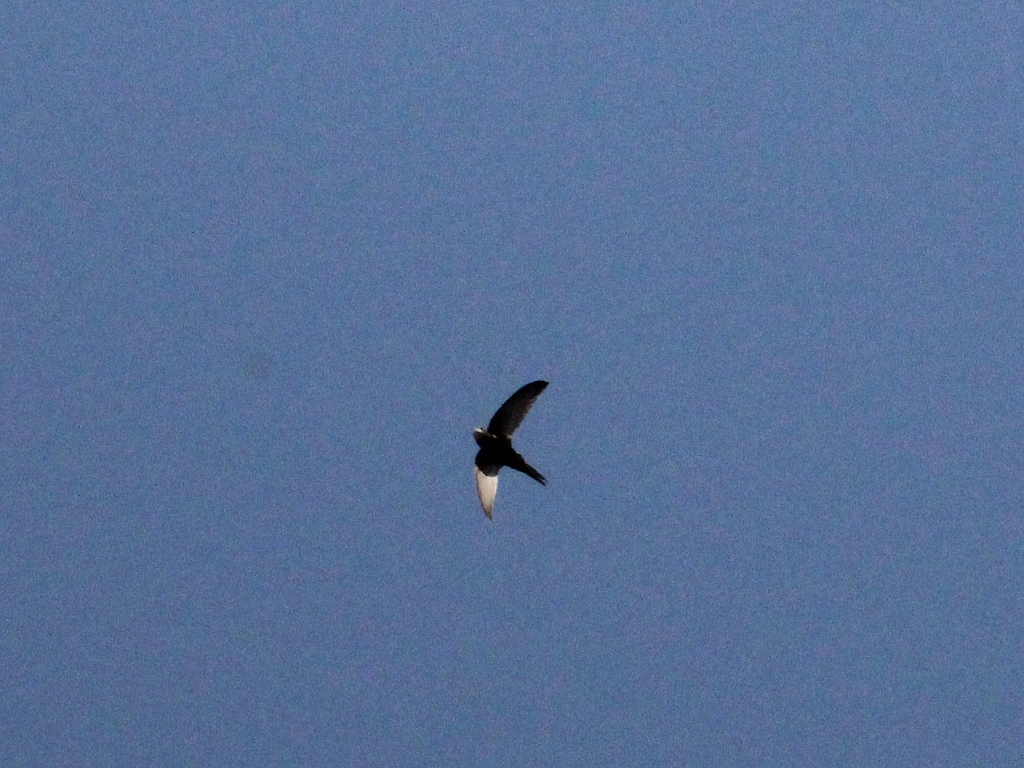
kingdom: Animalia
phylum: Chordata
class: Aves
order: Apodiformes
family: Apodidae
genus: Apus
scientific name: Apus apus
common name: Common swift
